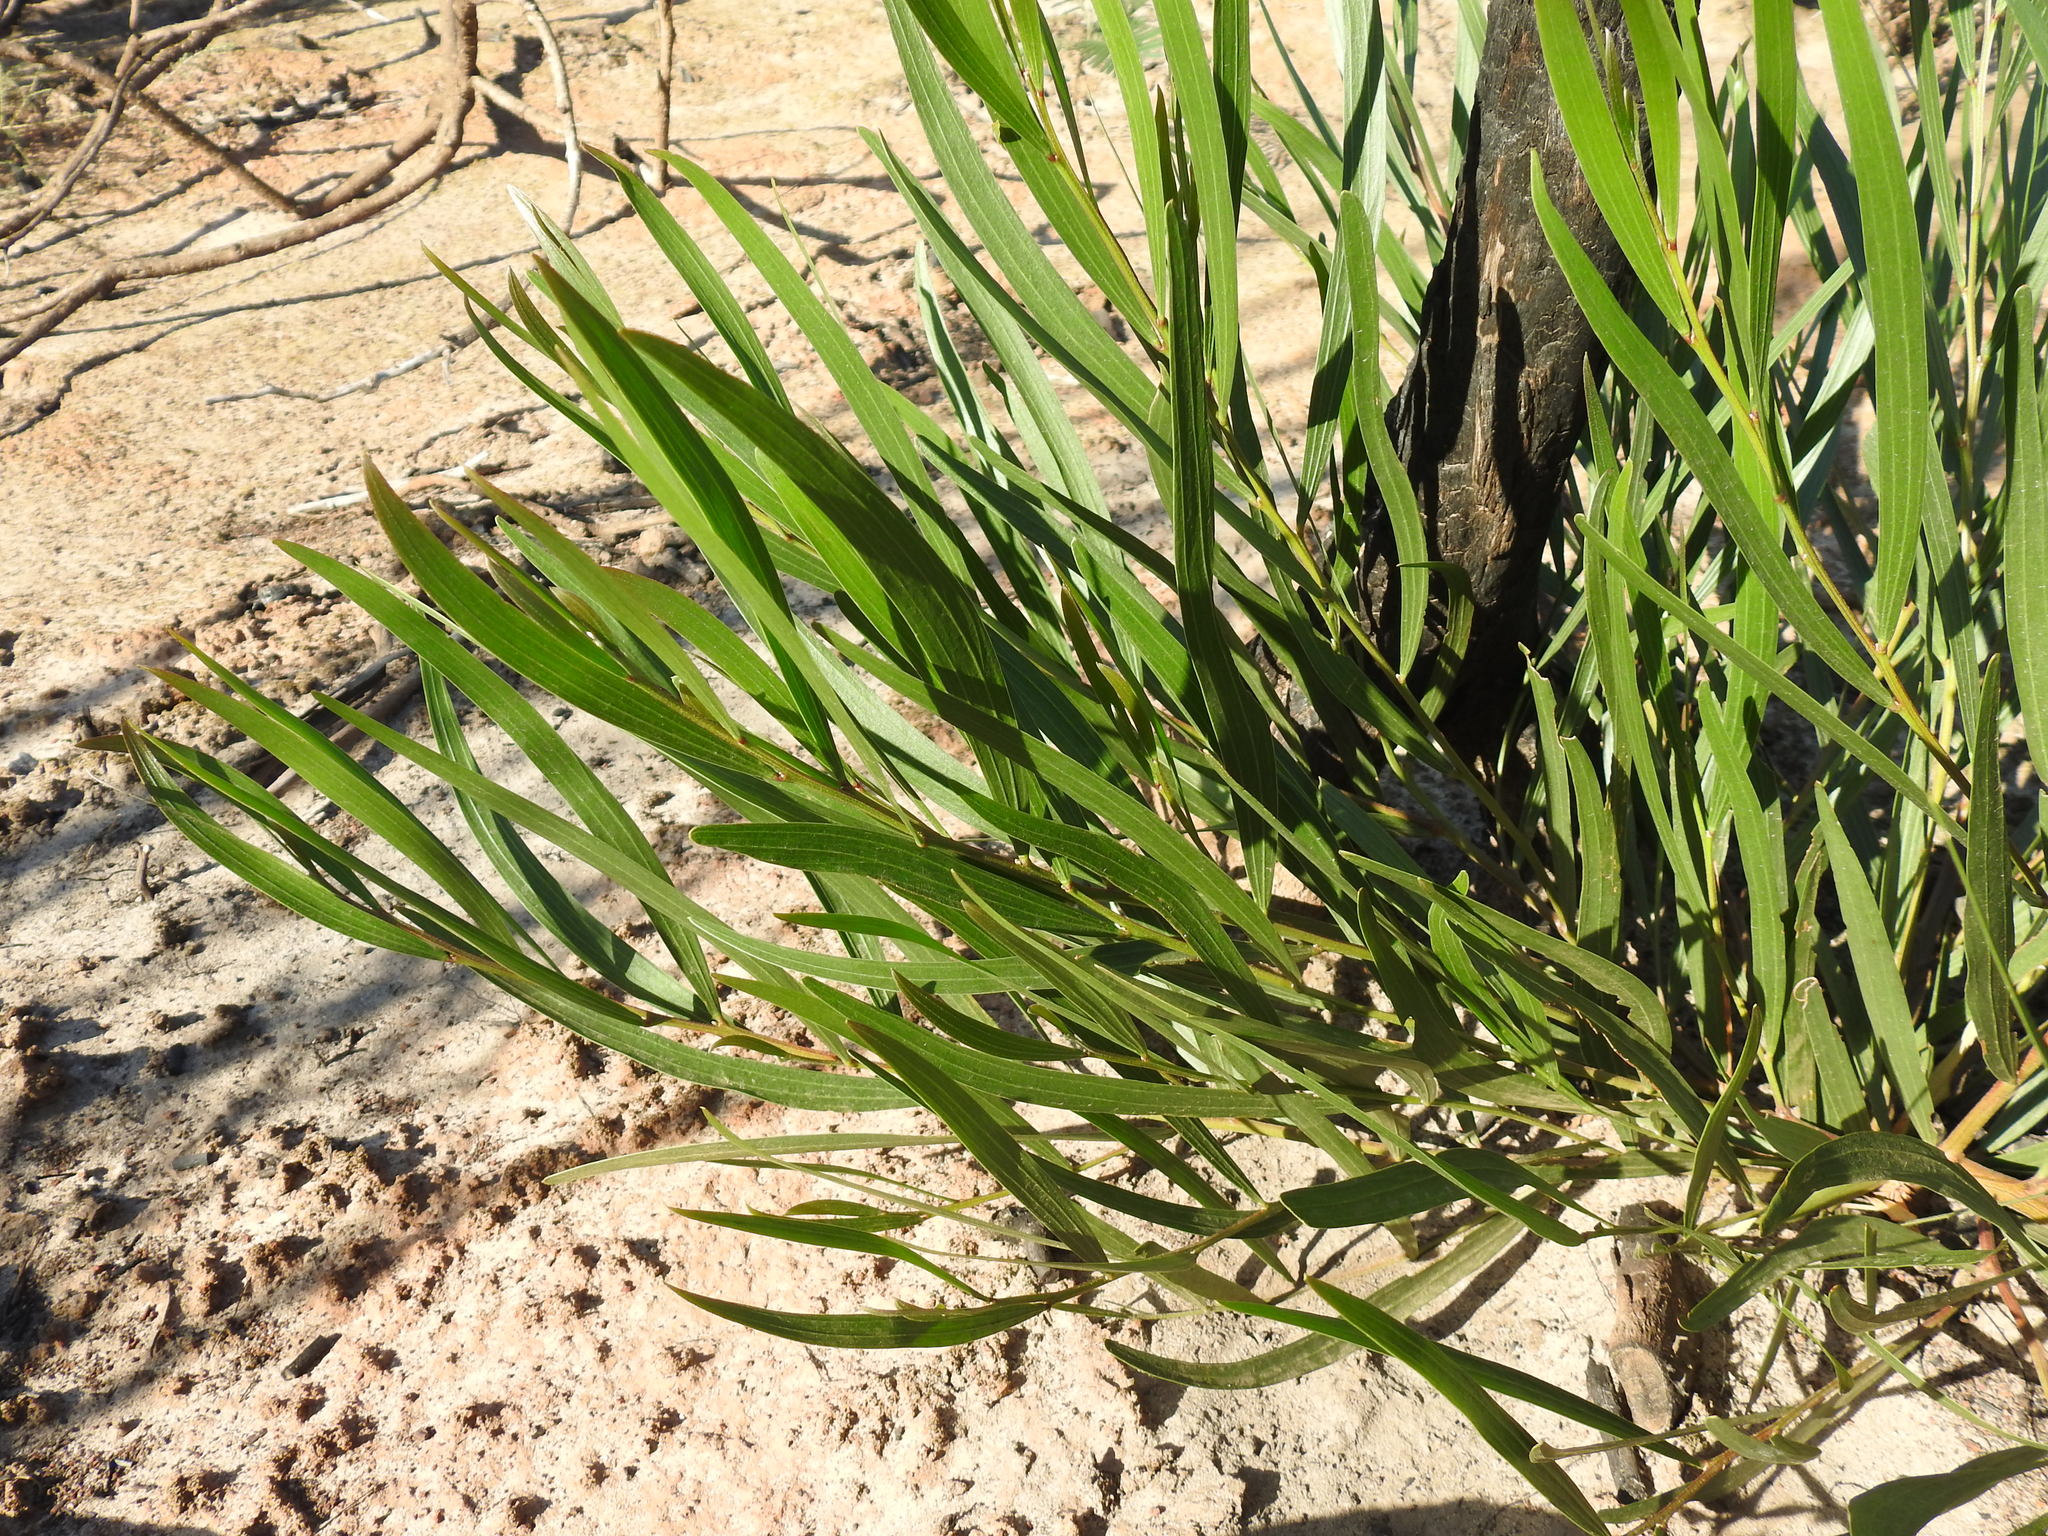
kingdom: Plantae
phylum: Tracheophyta
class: Magnoliopsida
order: Fabales
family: Fabaceae
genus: Acacia
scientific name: Acacia longifolia
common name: Sydney golden wattle
